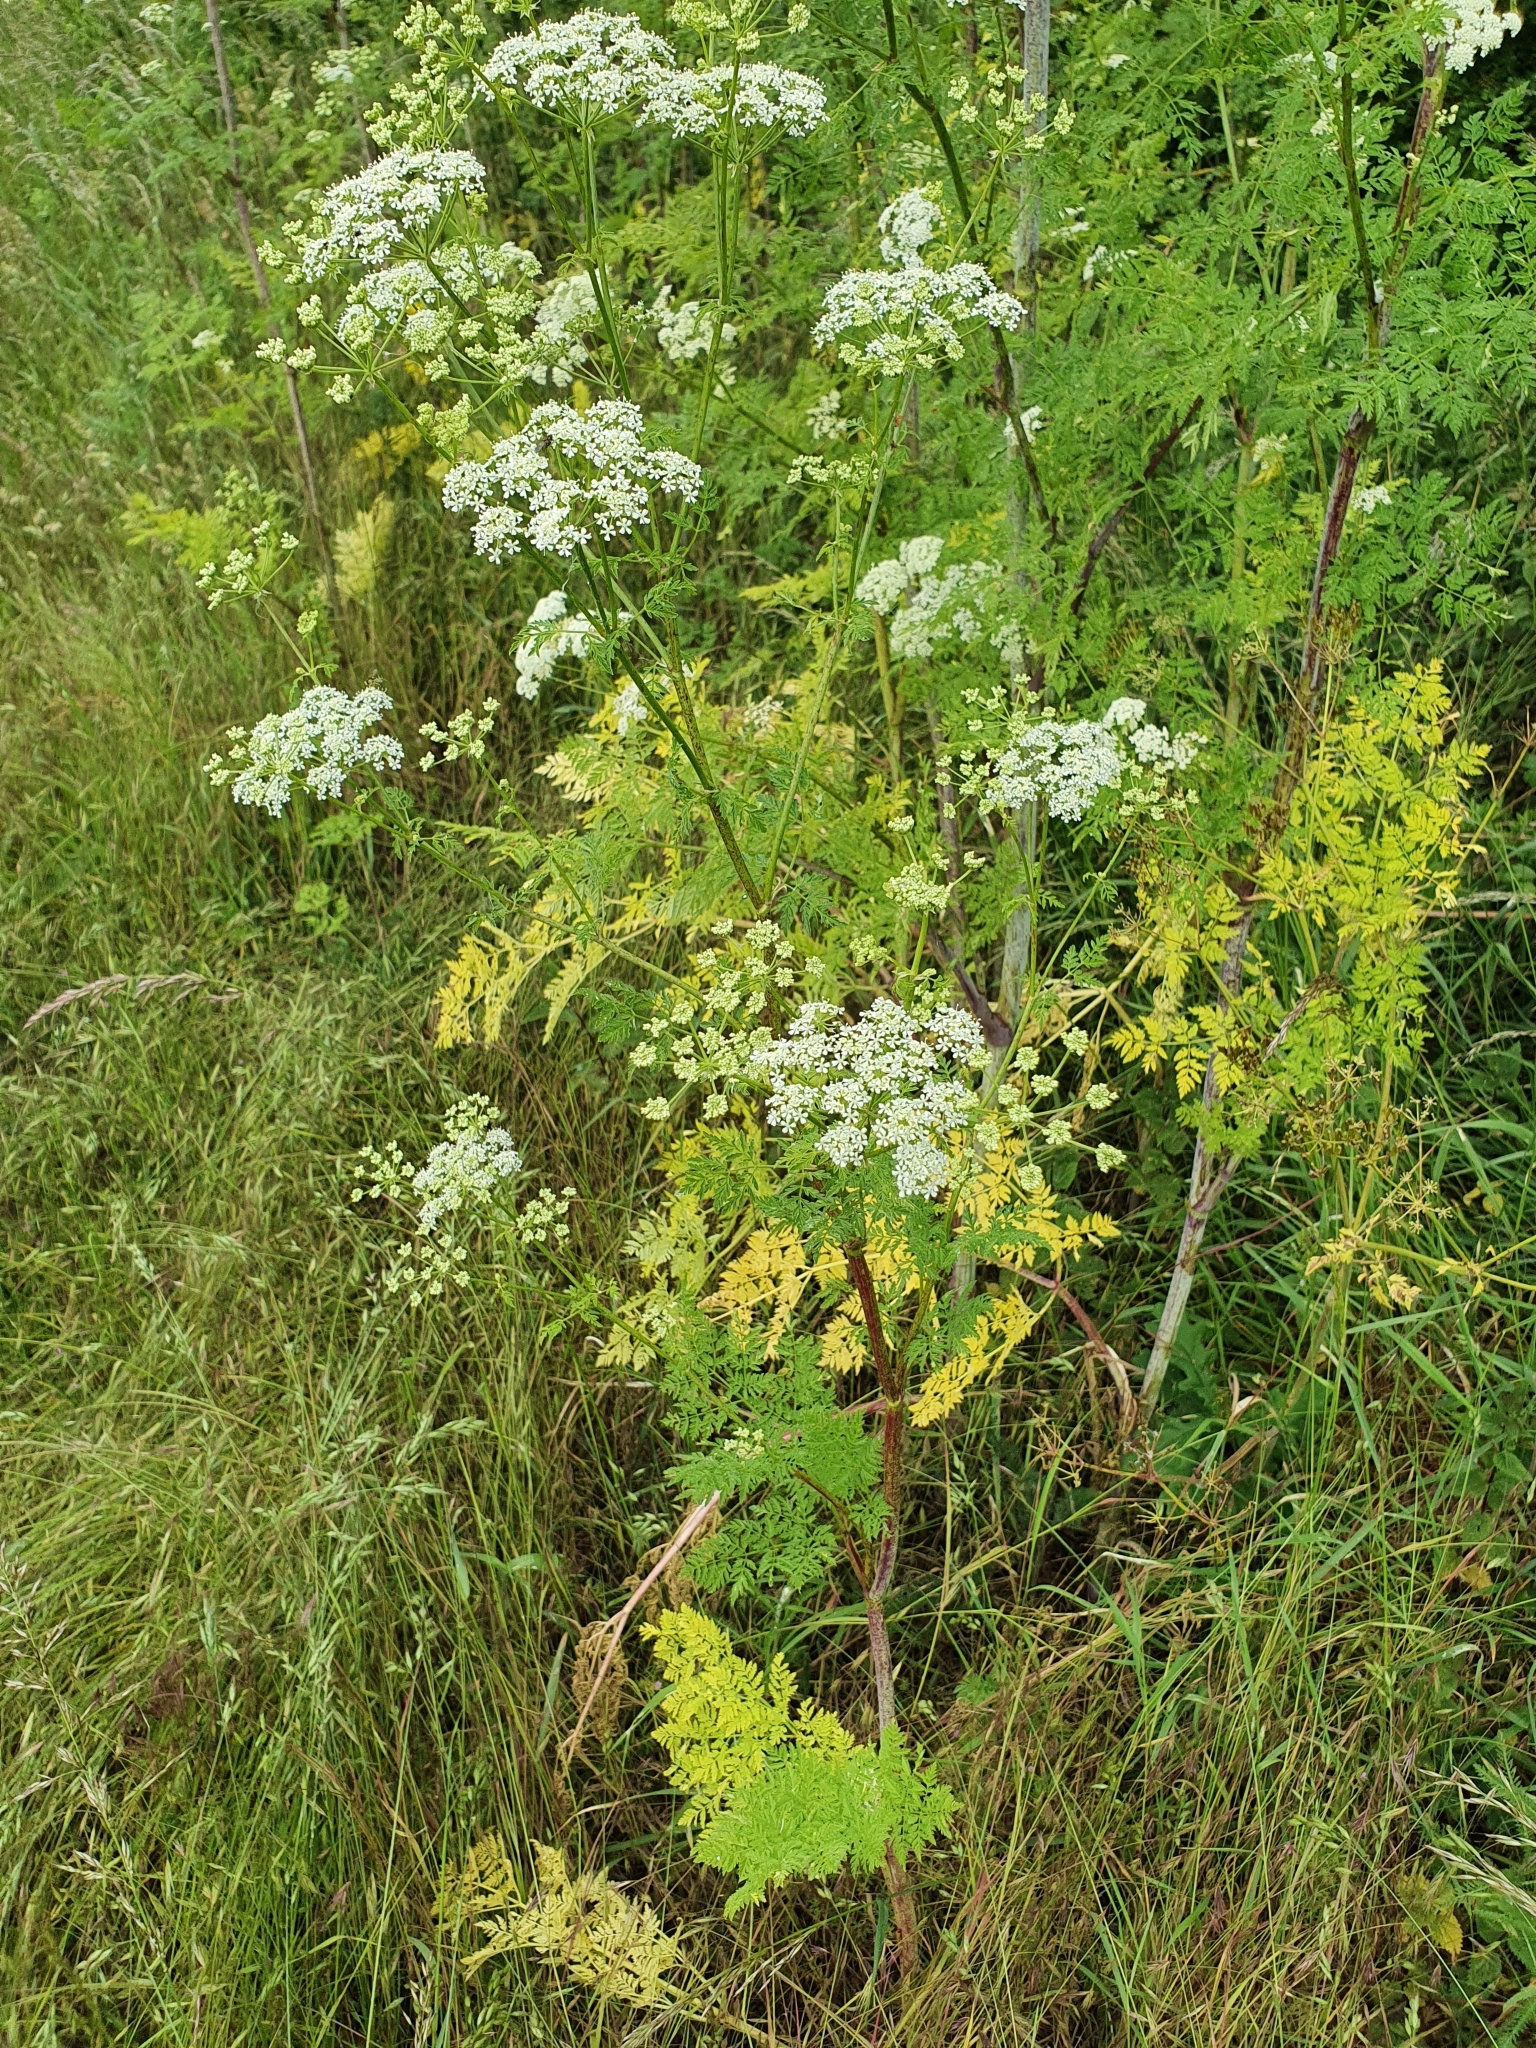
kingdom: Plantae
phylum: Tracheophyta
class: Magnoliopsida
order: Apiales
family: Apiaceae
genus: Conium
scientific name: Conium maculatum
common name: Hemlock
